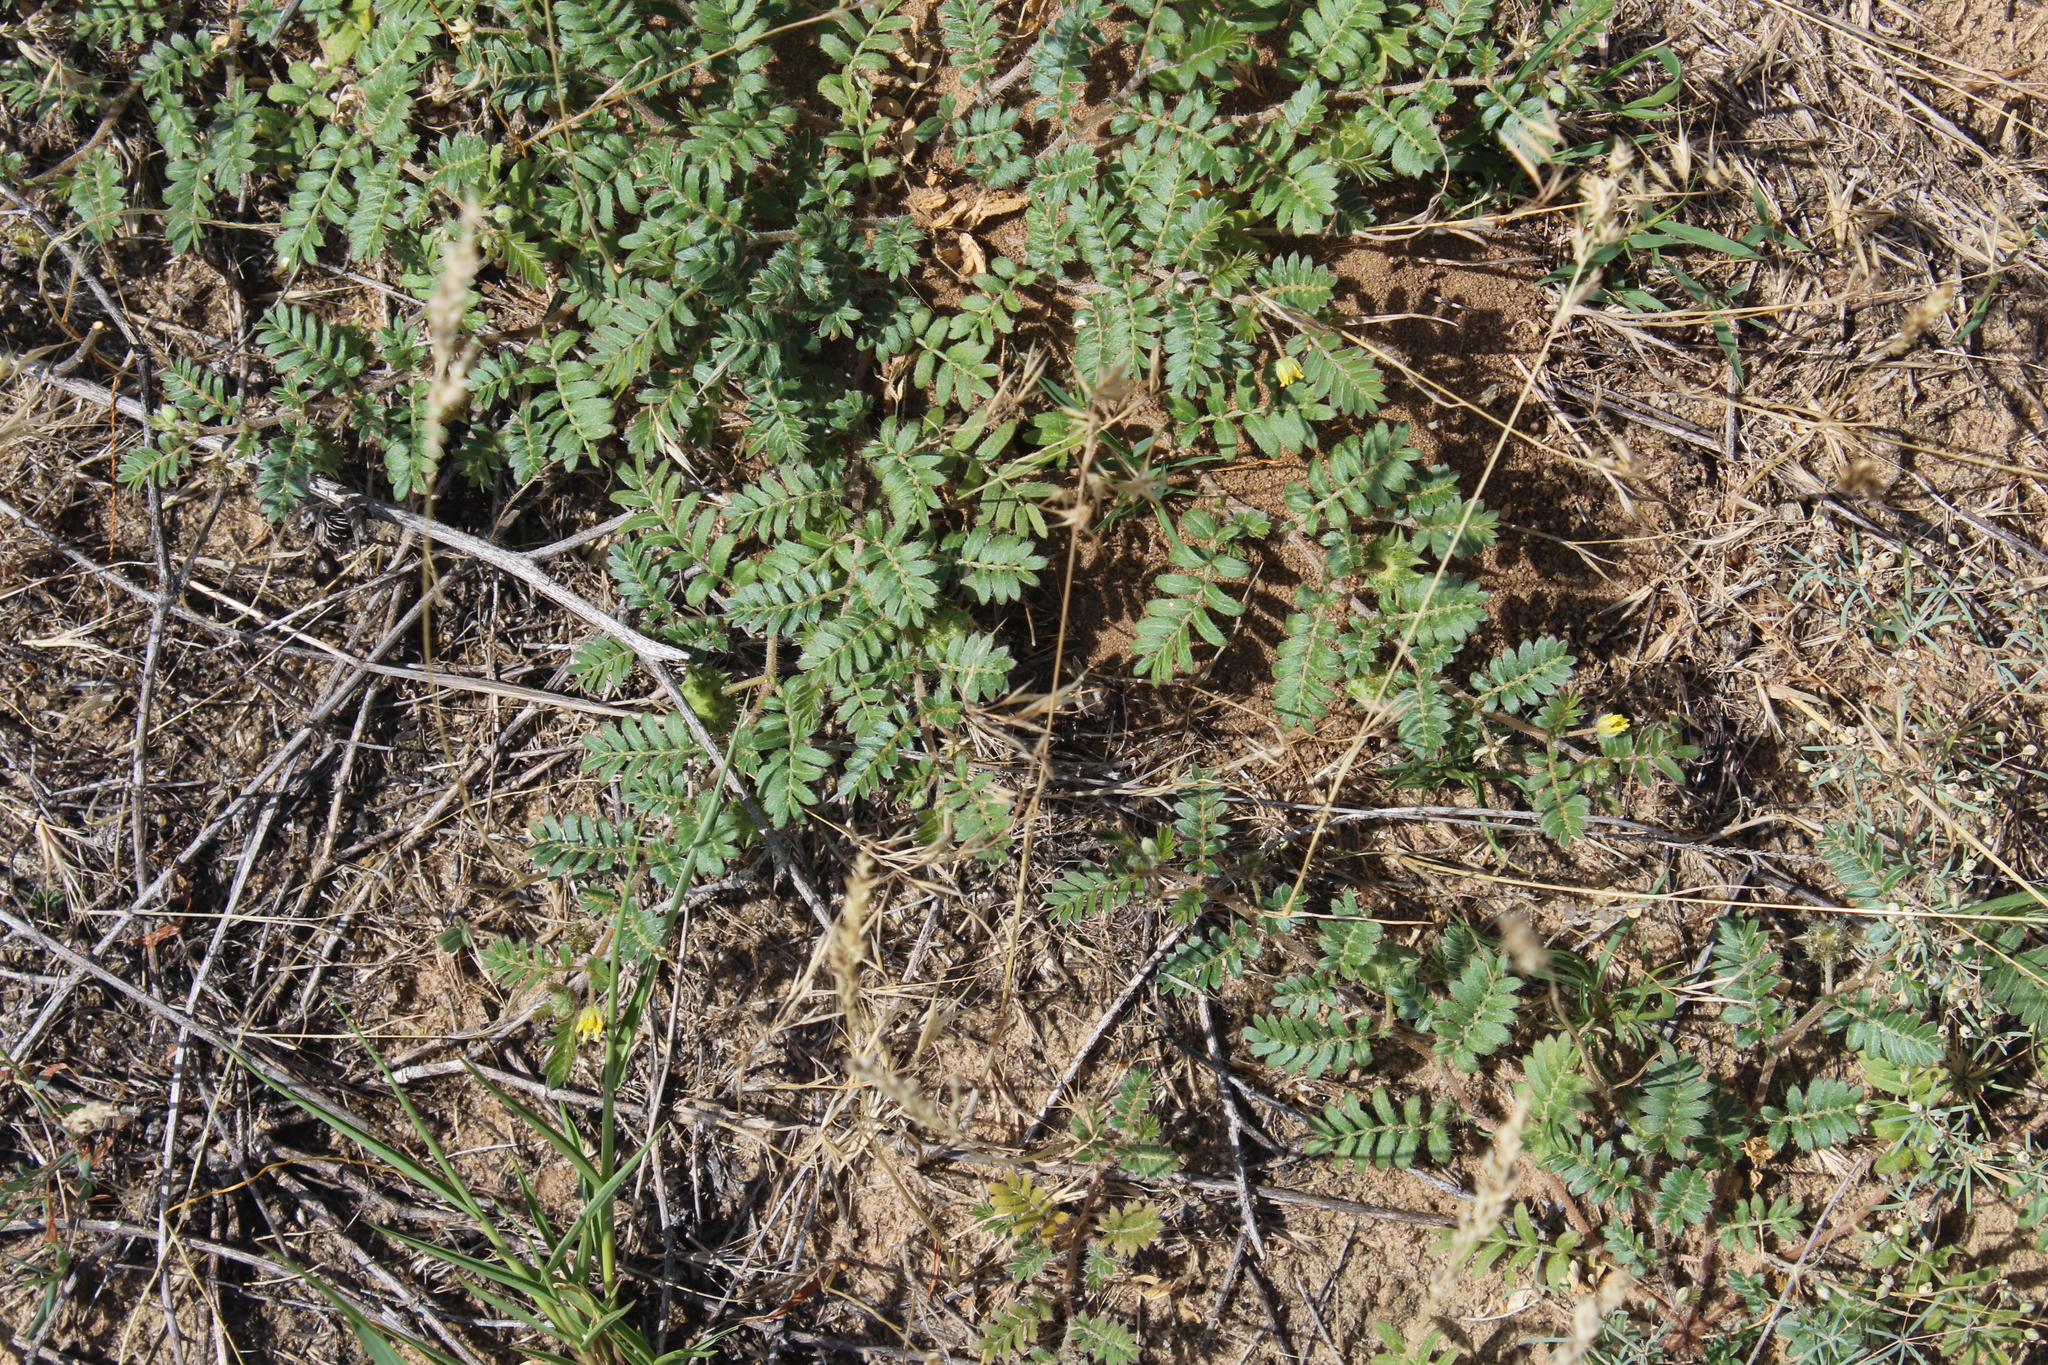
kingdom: Plantae
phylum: Tracheophyta
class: Magnoliopsida
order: Zygophyllales
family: Zygophyllaceae
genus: Tribulus
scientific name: Tribulus terrestris
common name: Puncturevine
